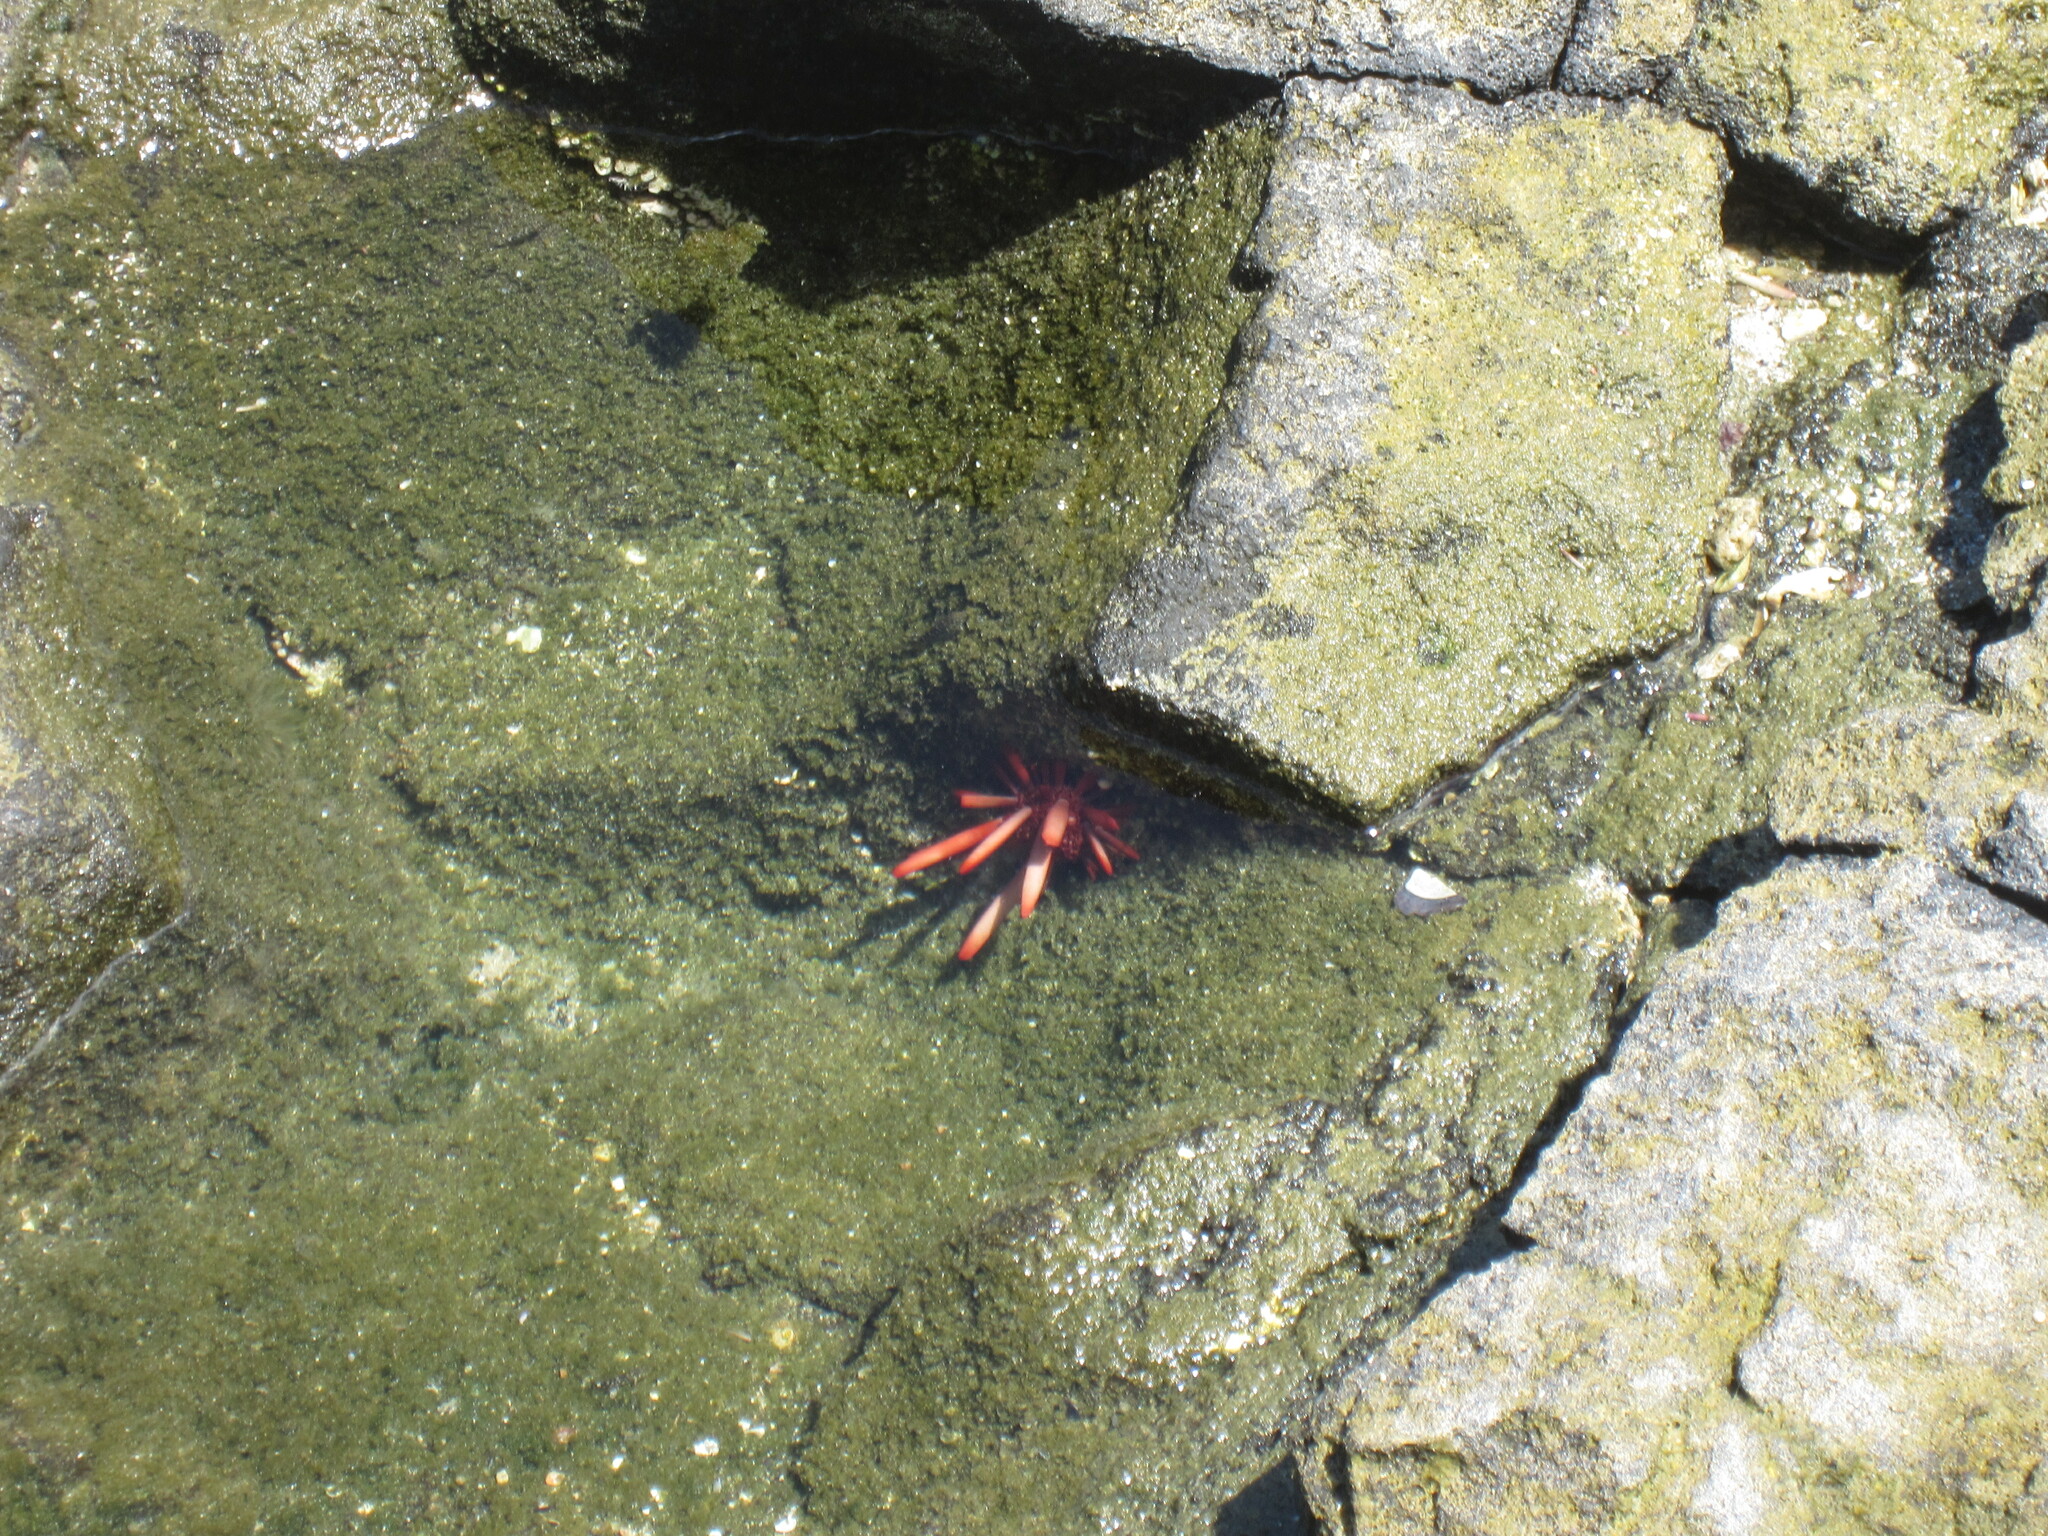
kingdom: Animalia
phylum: Echinodermata
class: Echinoidea
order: Camarodonta
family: Echinometridae
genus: Heterocentrotus
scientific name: Heterocentrotus mamillatus
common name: Slate pencil urchin
